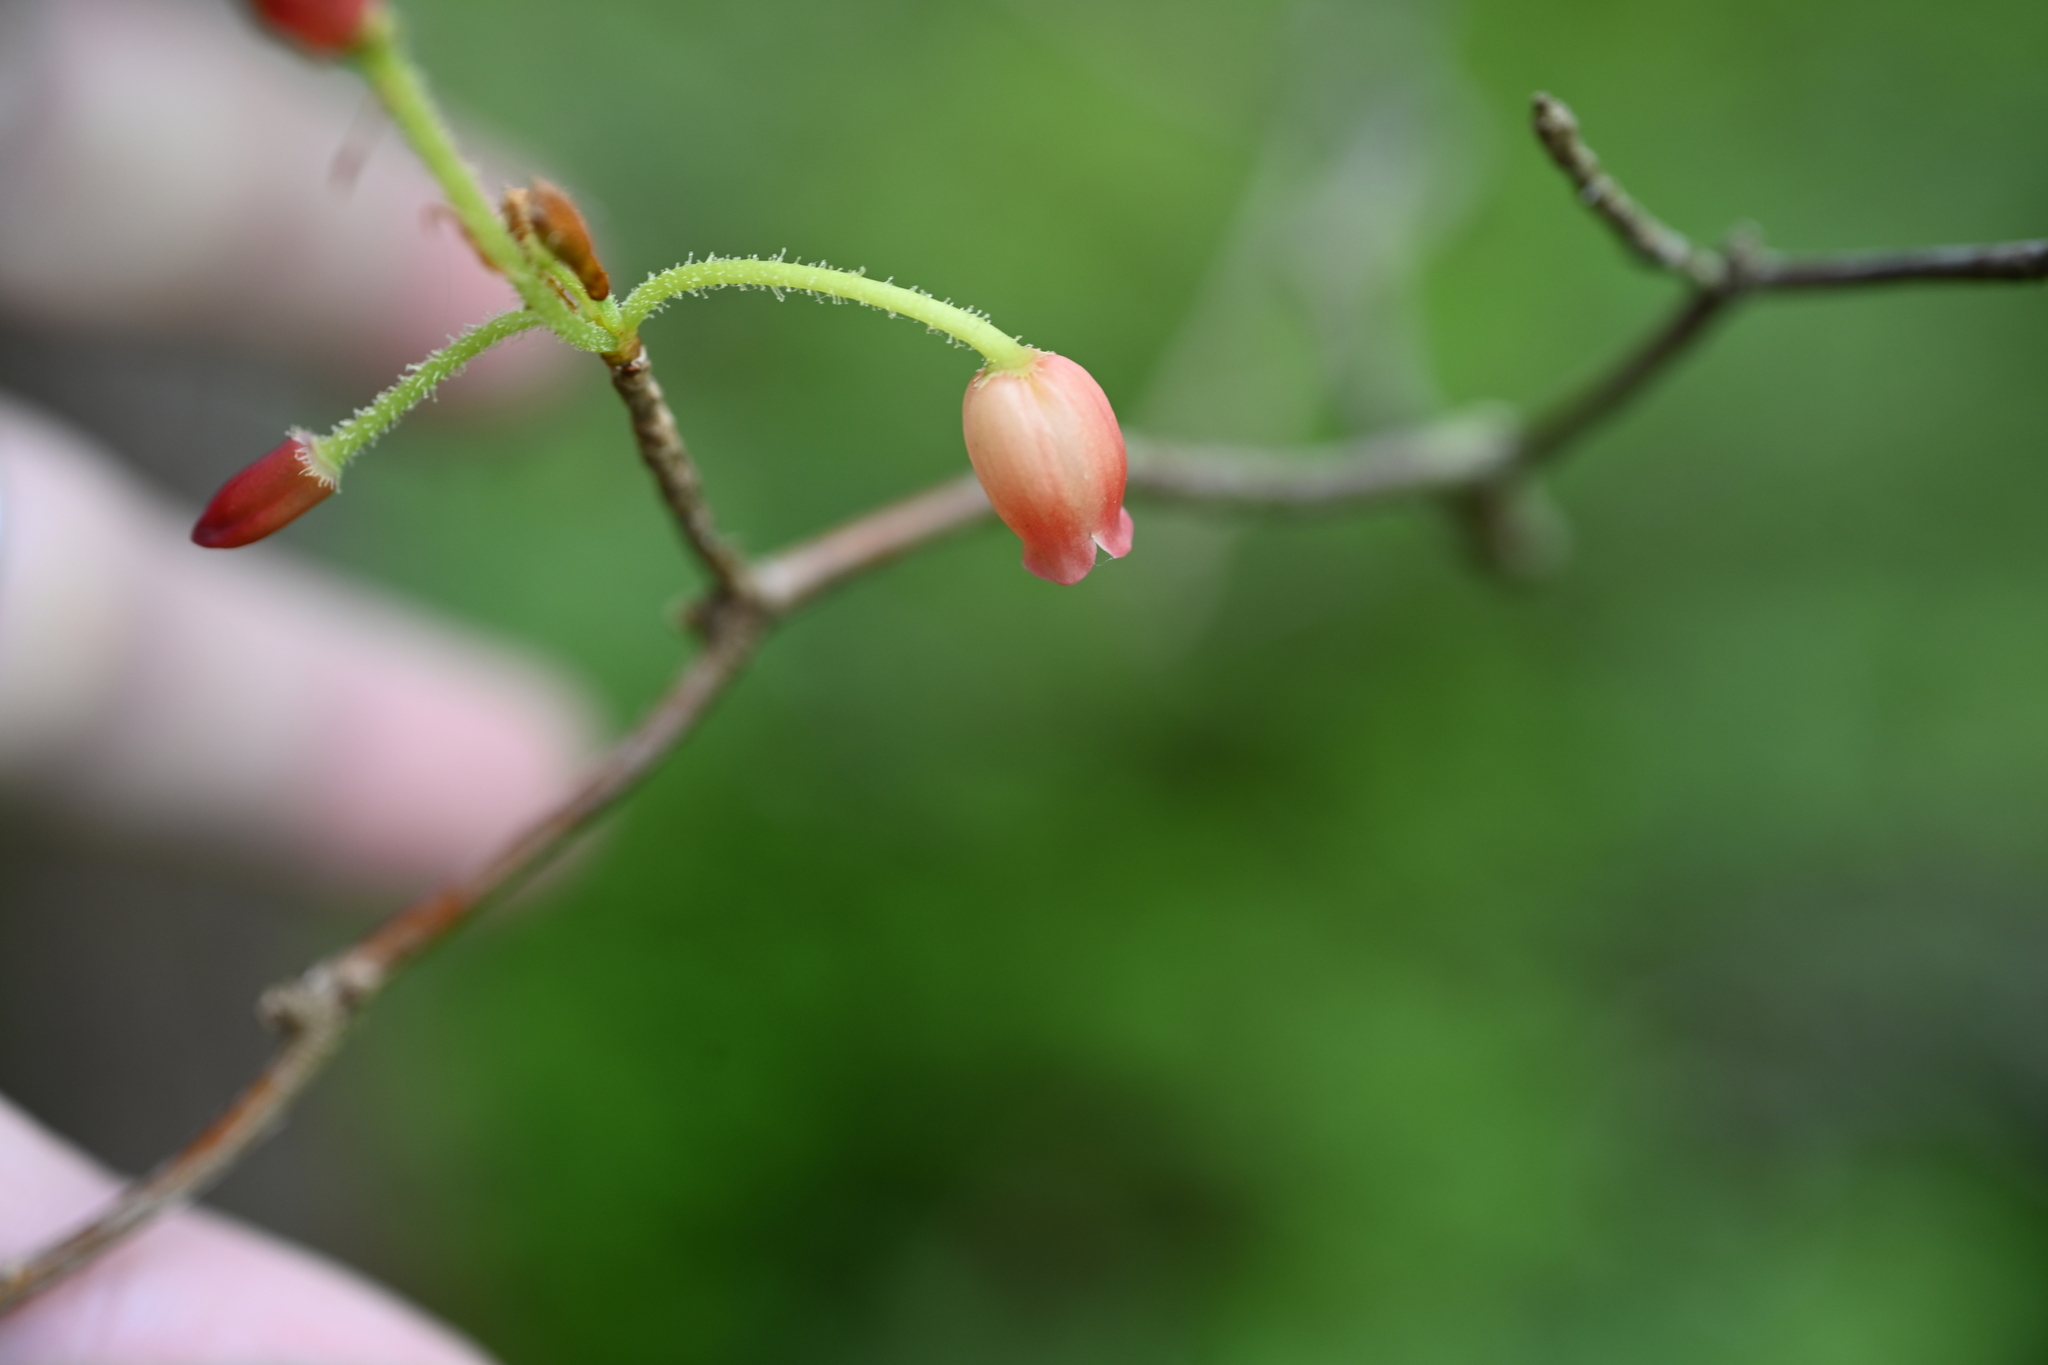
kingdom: Plantae
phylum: Tracheophyta
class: Magnoliopsida
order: Ericales
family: Ericaceae
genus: Rhododendron
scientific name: Rhododendron menziesii
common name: Pacific menziesia
